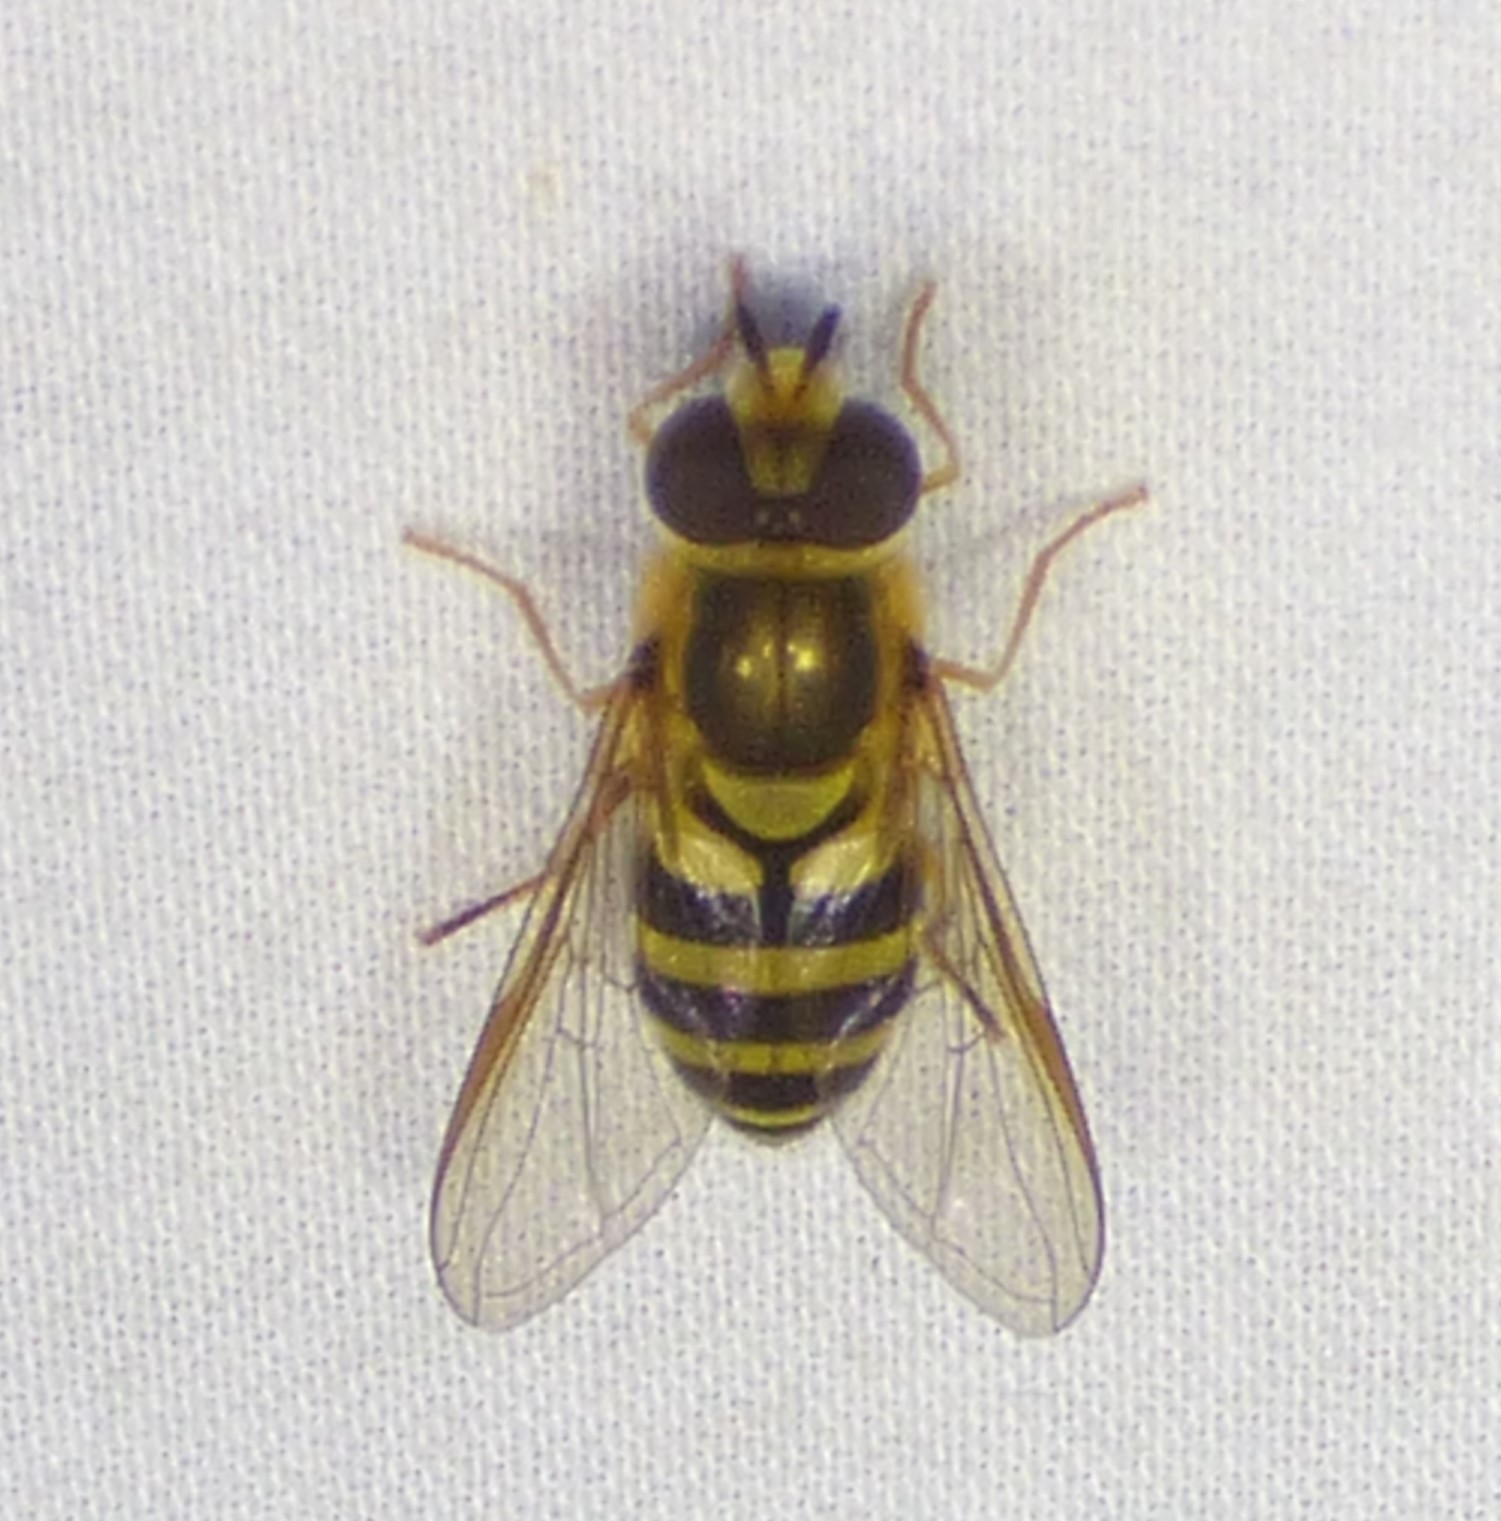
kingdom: Animalia
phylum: Arthropoda
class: Insecta
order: Diptera
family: Syrphidae
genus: Syrphus
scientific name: Syrphus knabi
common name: Eastern flower fly
